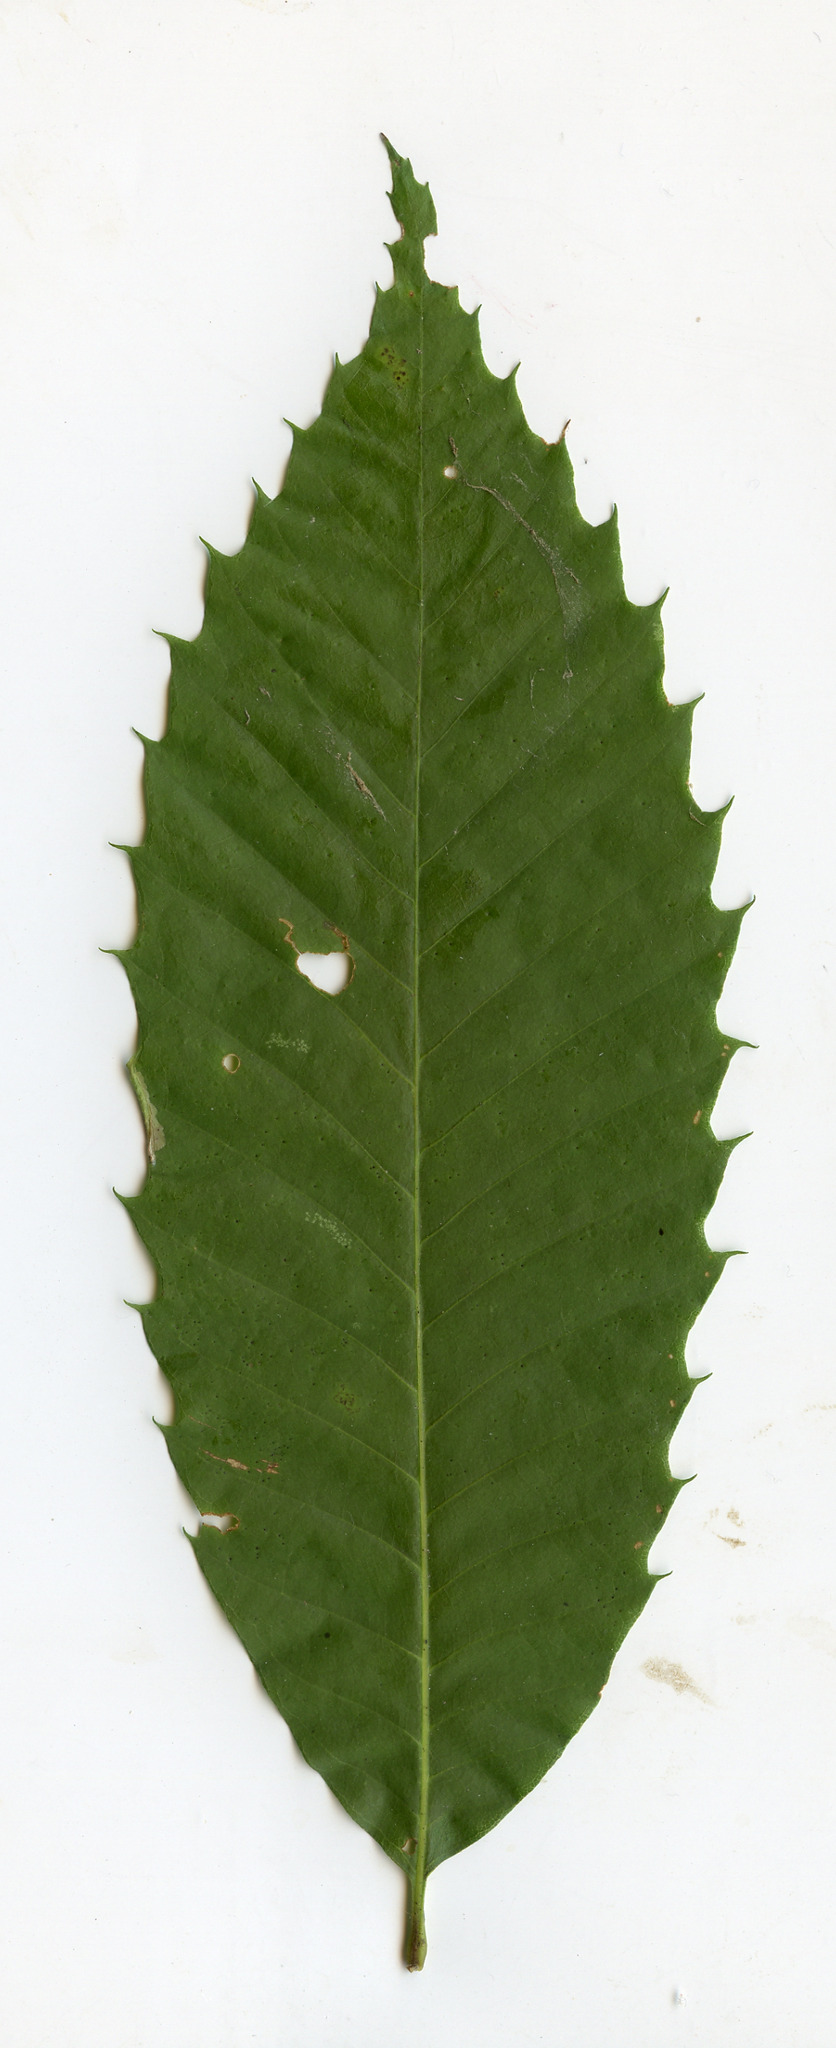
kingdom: Plantae
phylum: Tracheophyta
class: Magnoliopsida
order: Fagales
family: Fagaceae
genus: Castanea
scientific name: Castanea dentata
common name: American chestnut
